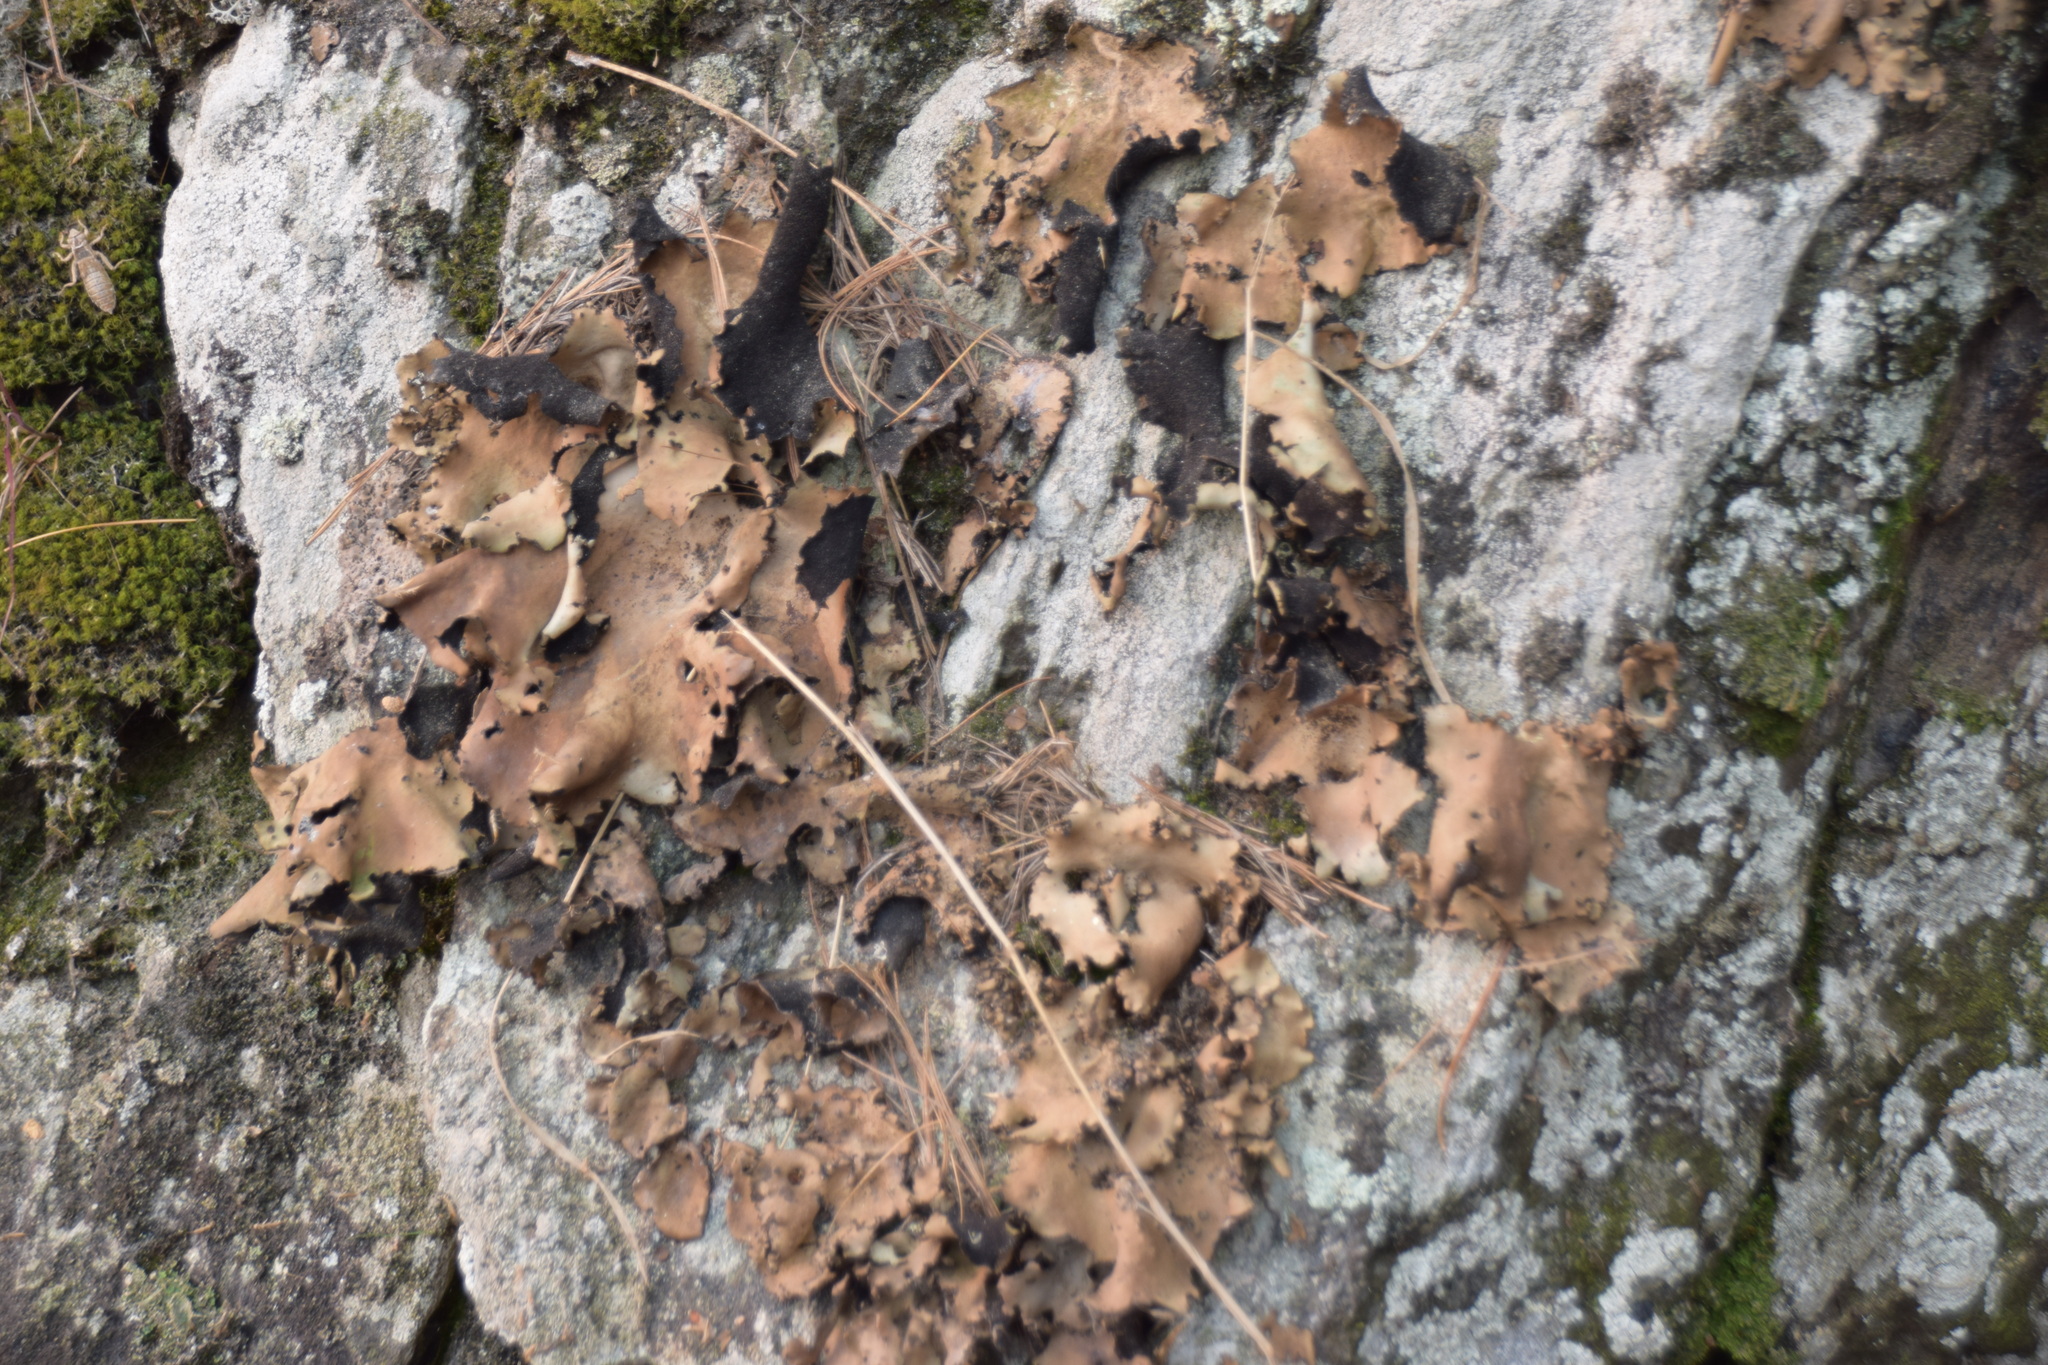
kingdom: Fungi
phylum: Ascomycota
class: Lecanoromycetes
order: Umbilicariales
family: Umbilicariaceae
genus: Umbilicaria
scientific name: Umbilicaria mammulata
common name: Smooth rock tripe
